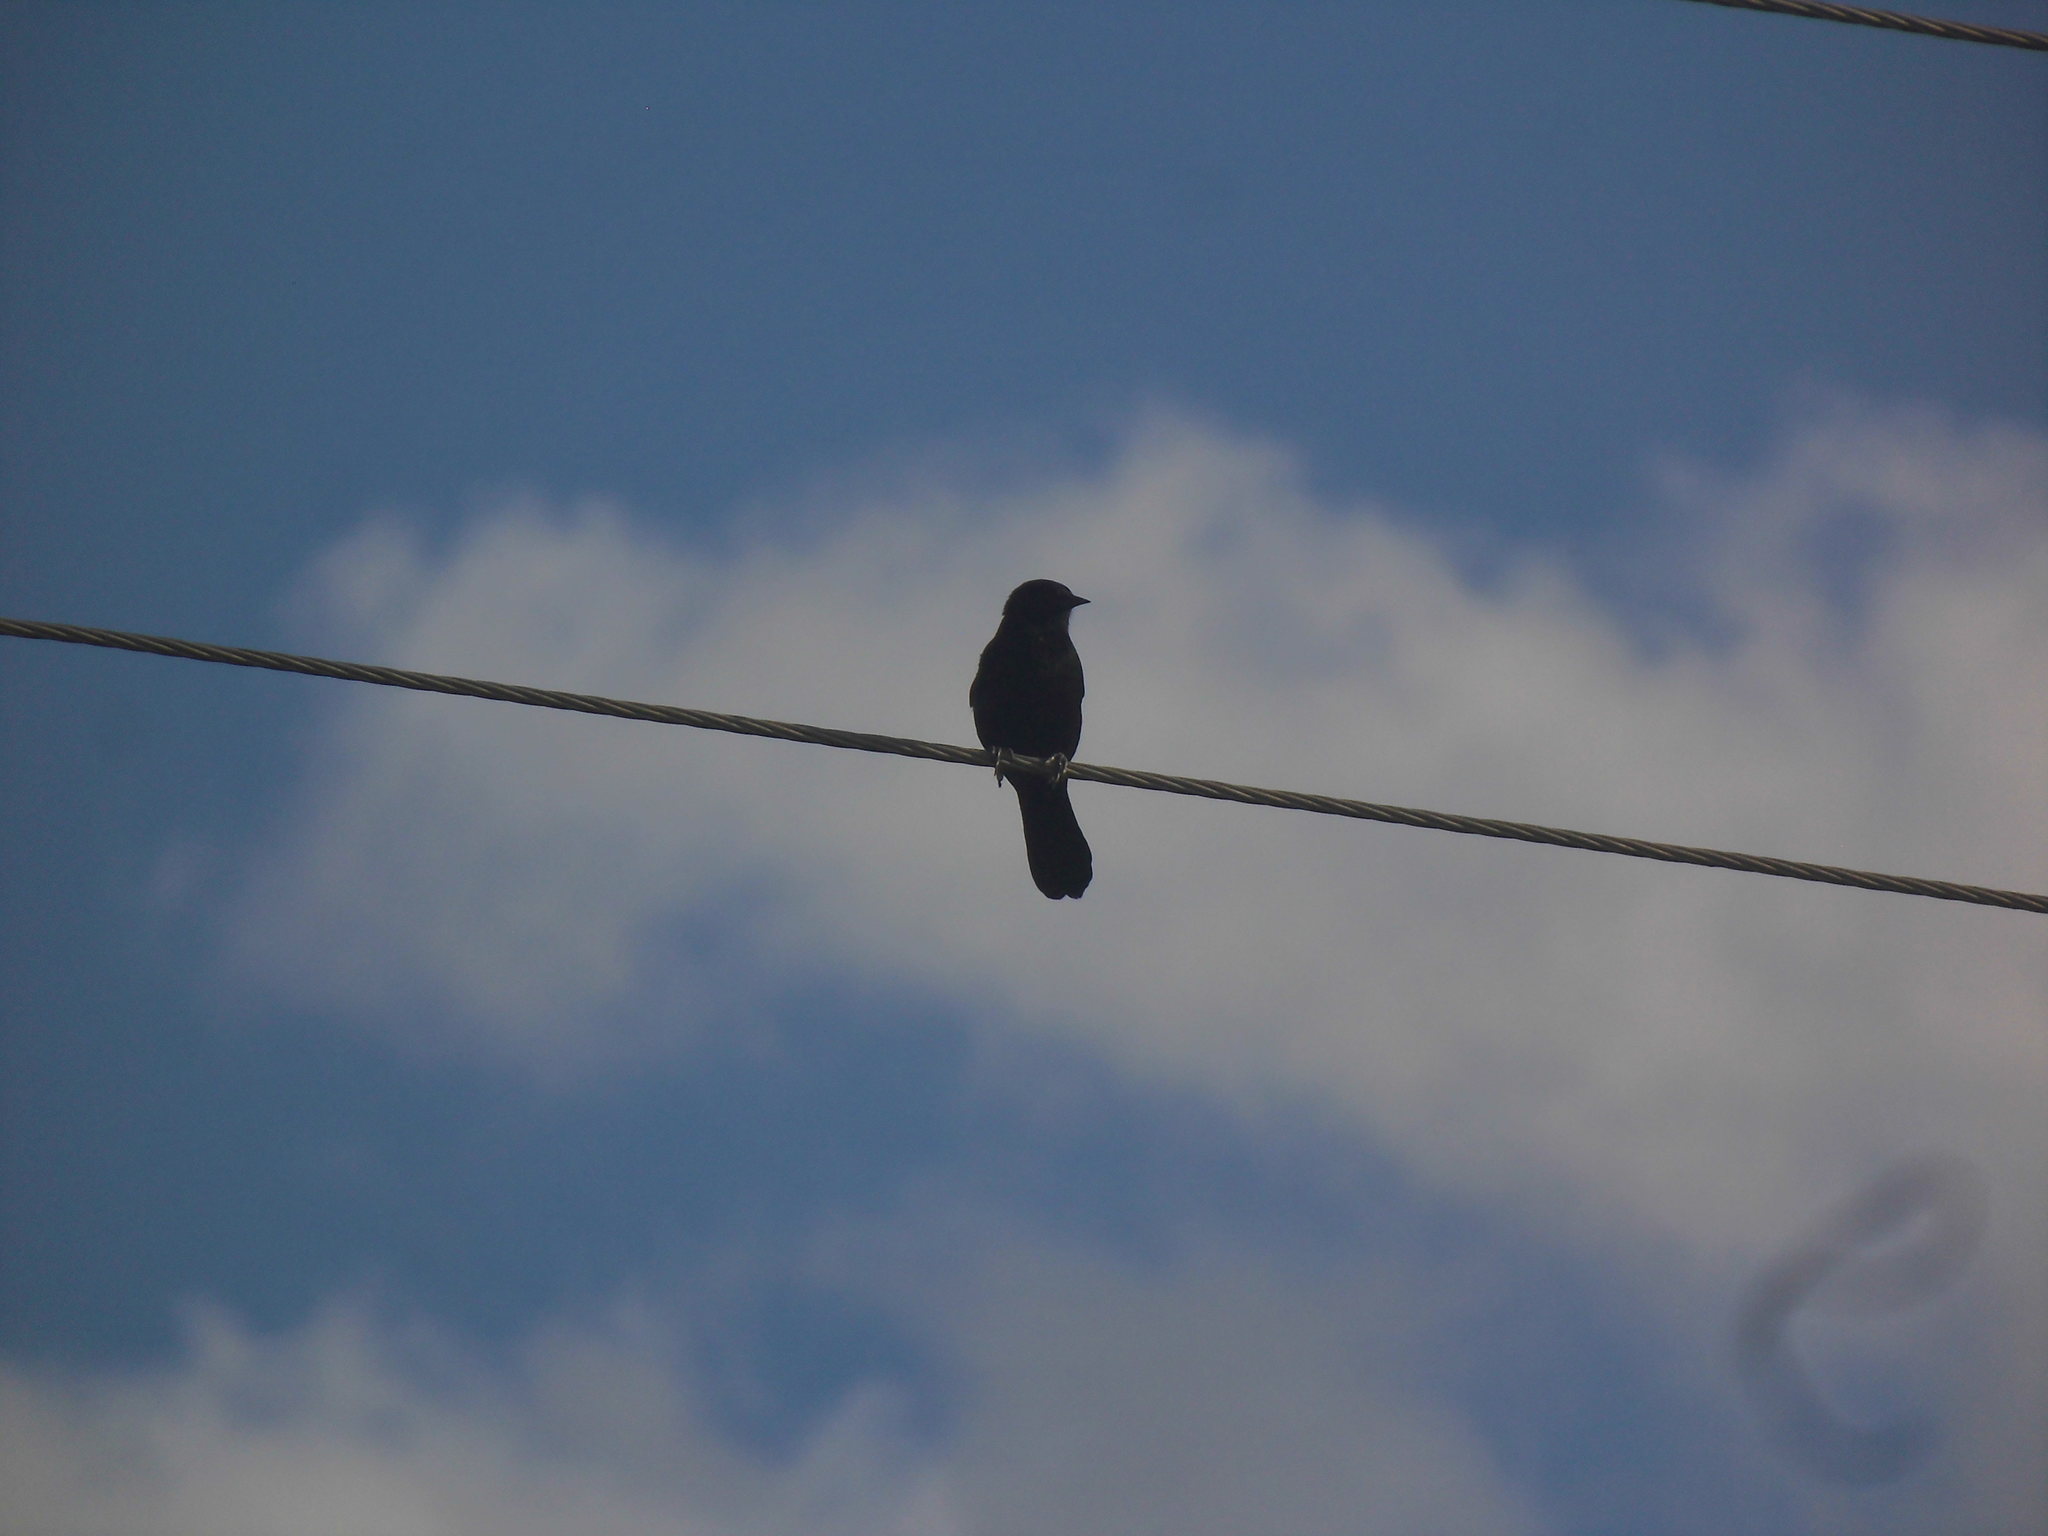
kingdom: Animalia
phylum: Chordata
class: Aves
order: Passeriformes
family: Icteridae
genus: Icterus
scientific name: Icterus cayanensis
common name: Epaulet oriole
